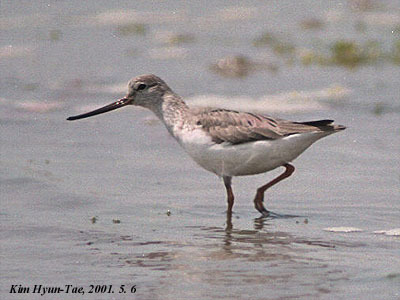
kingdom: Animalia
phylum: Chordata
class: Aves
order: Charadriiformes
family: Scolopacidae
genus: Xenus
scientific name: Xenus cinereus
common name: Terek sandpiper
